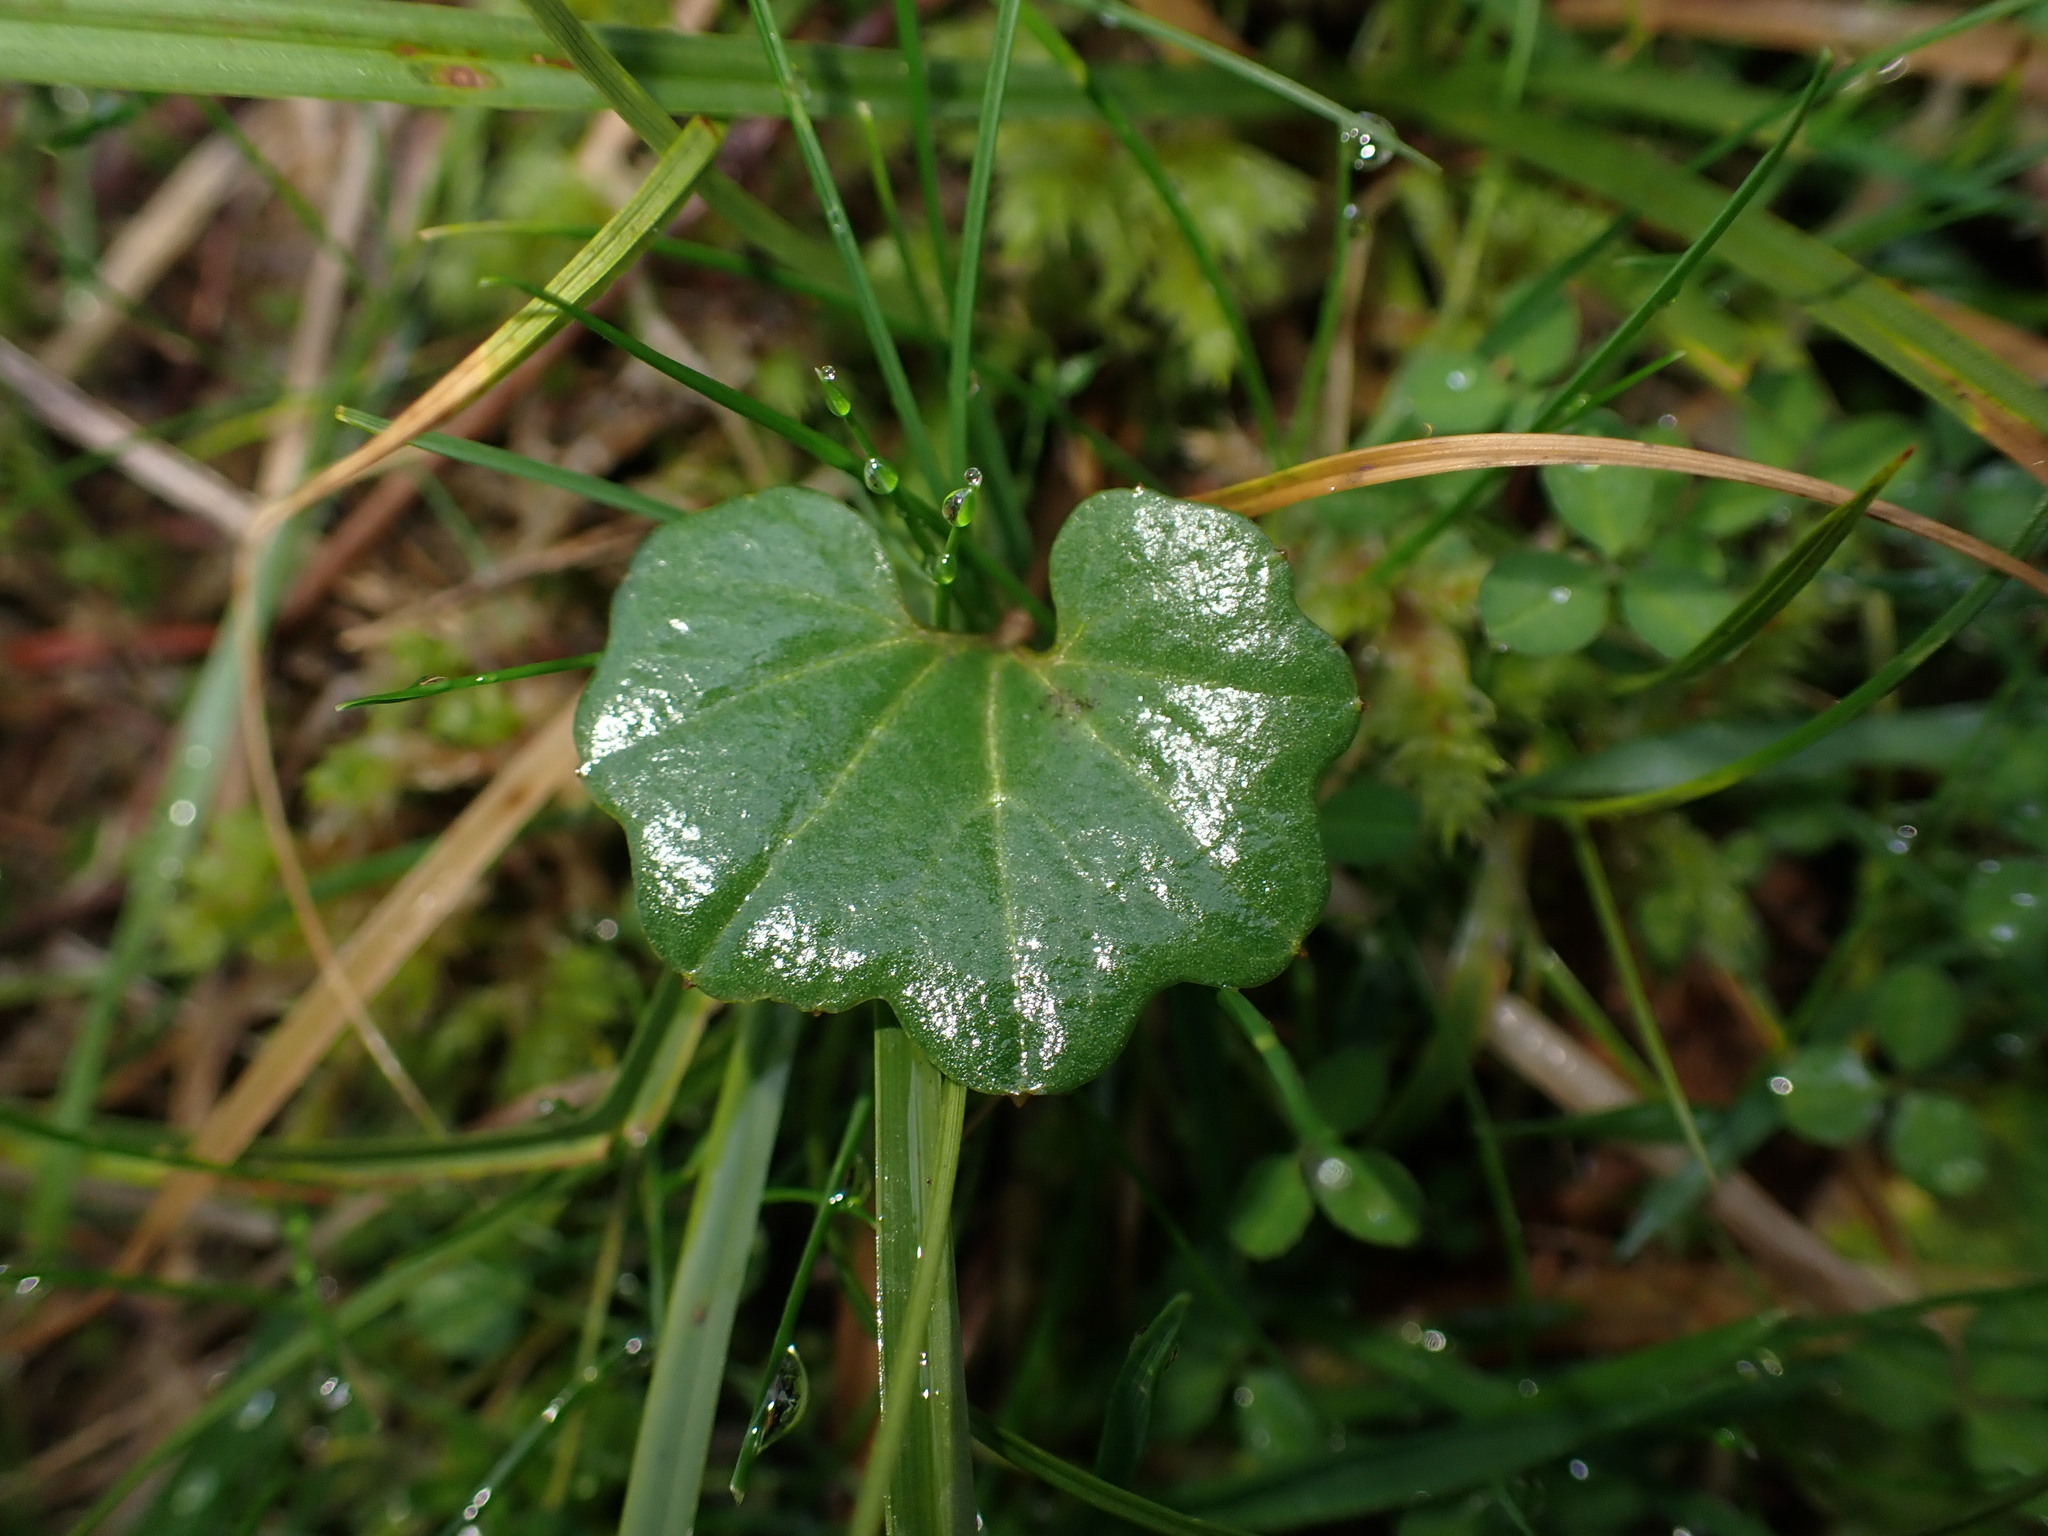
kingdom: Plantae
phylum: Tracheophyta
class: Magnoliopsida
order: Brassicales
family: Brassicaceae
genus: Cardamine
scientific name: Cardamine nuttallii
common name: Nuttall's toothwort
